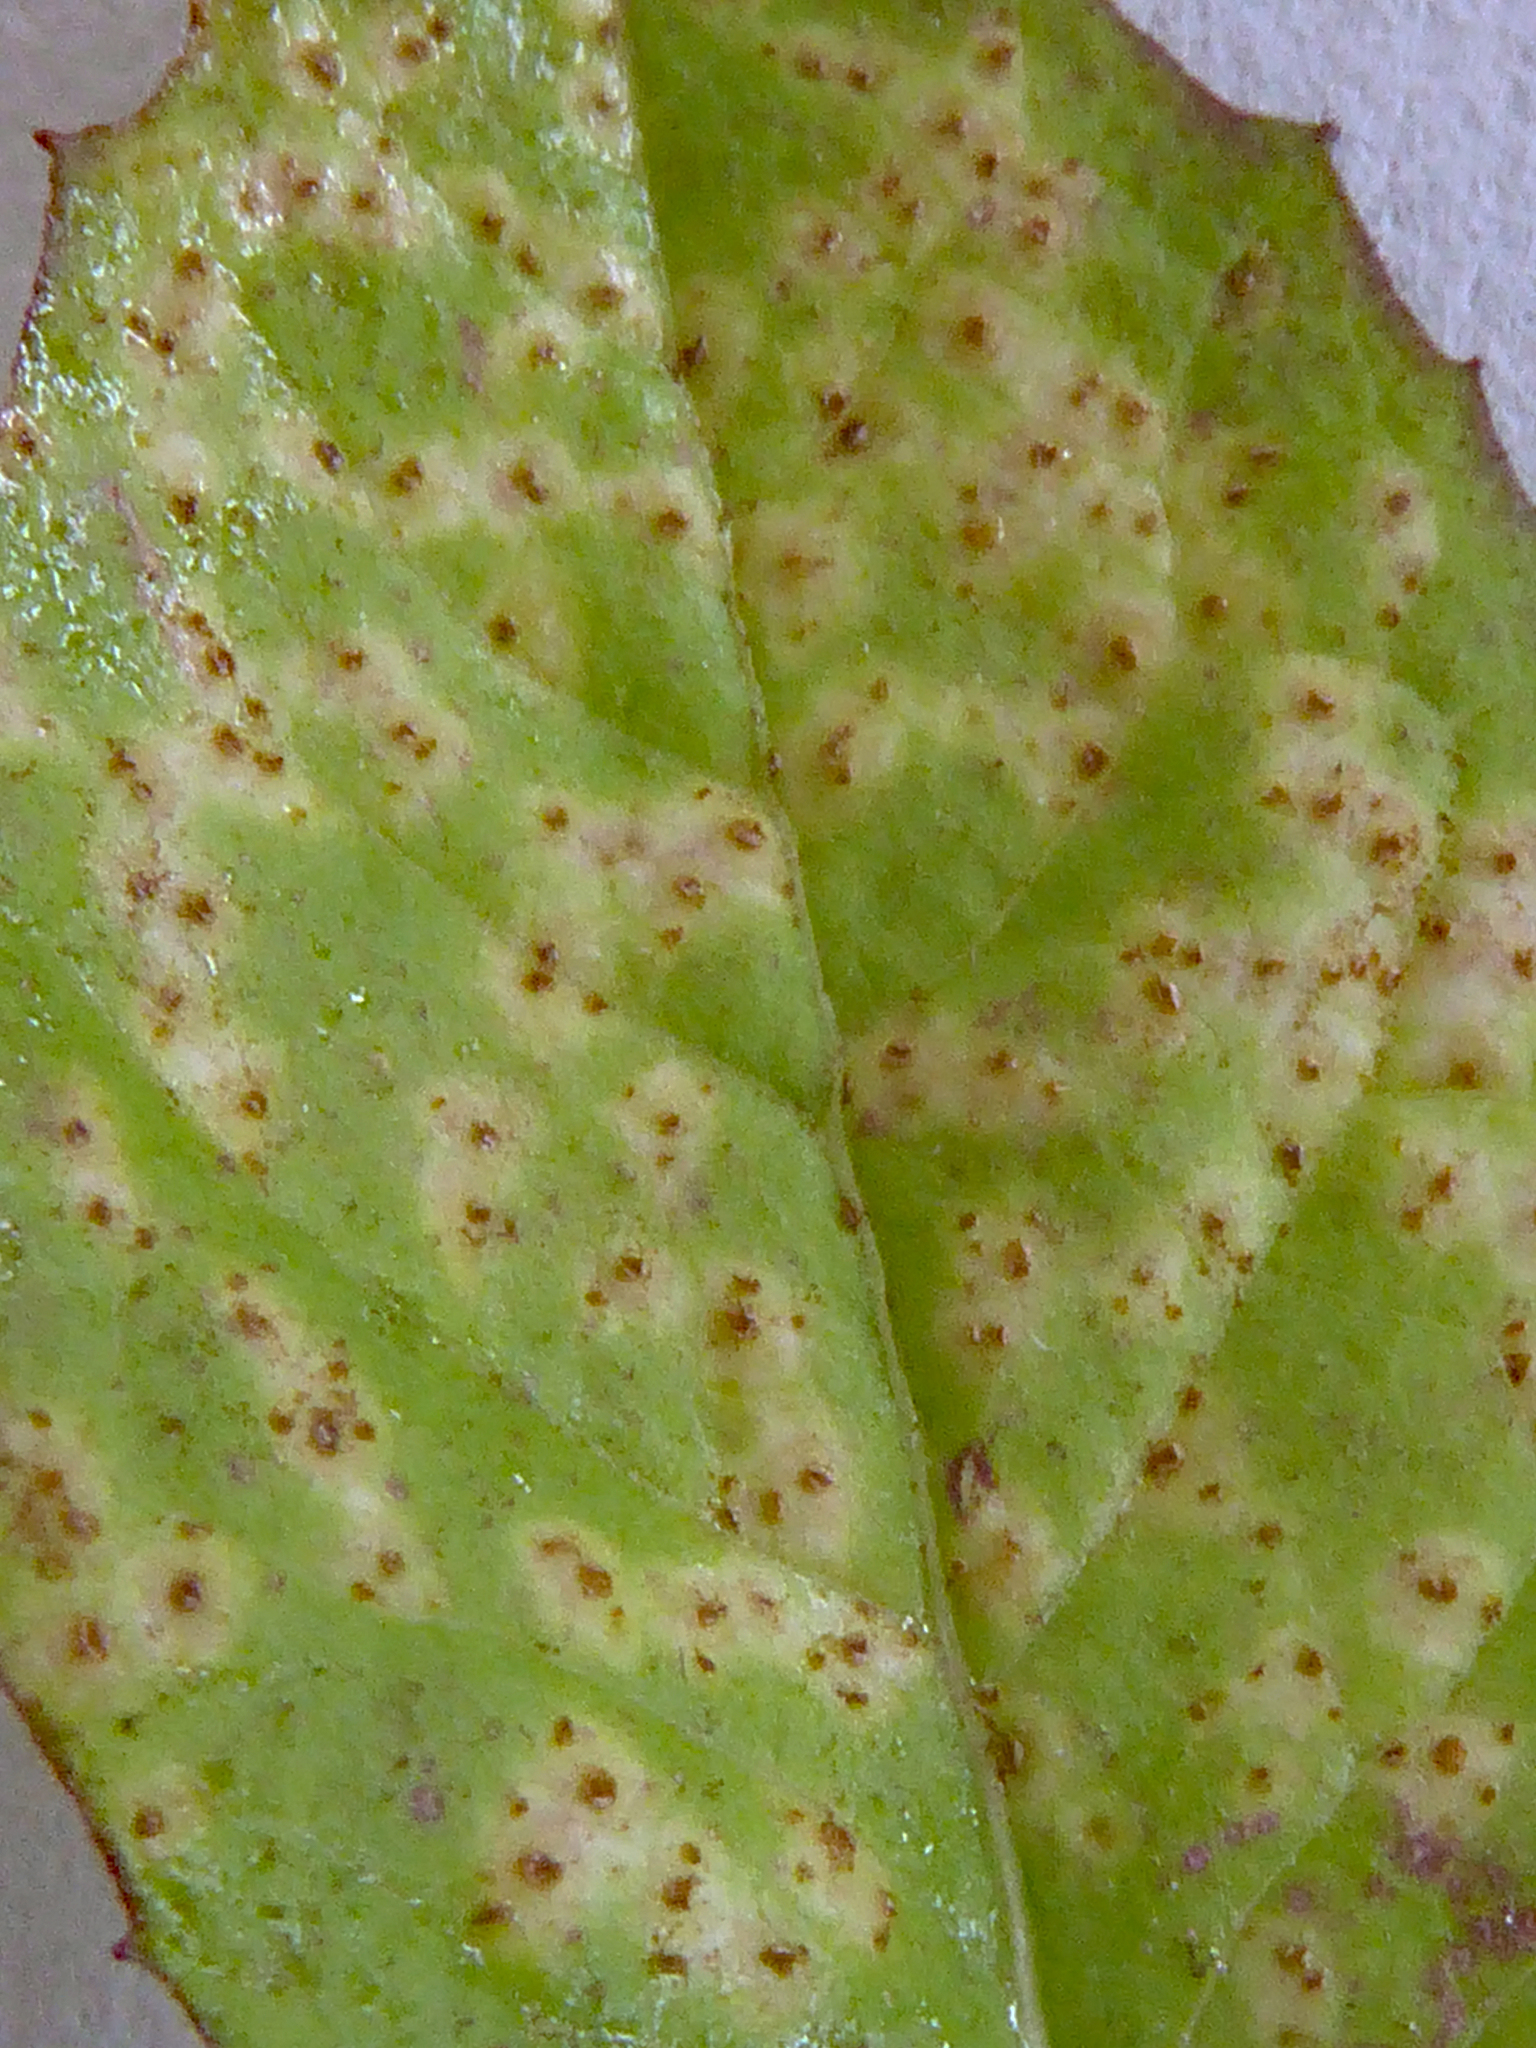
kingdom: Fungi
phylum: Basidiomycota
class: Pucciniomycetes
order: Pucciniales
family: Pucciniaceae
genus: Puccinia
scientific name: Puccinia lapsanae
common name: Nipplewort rust
